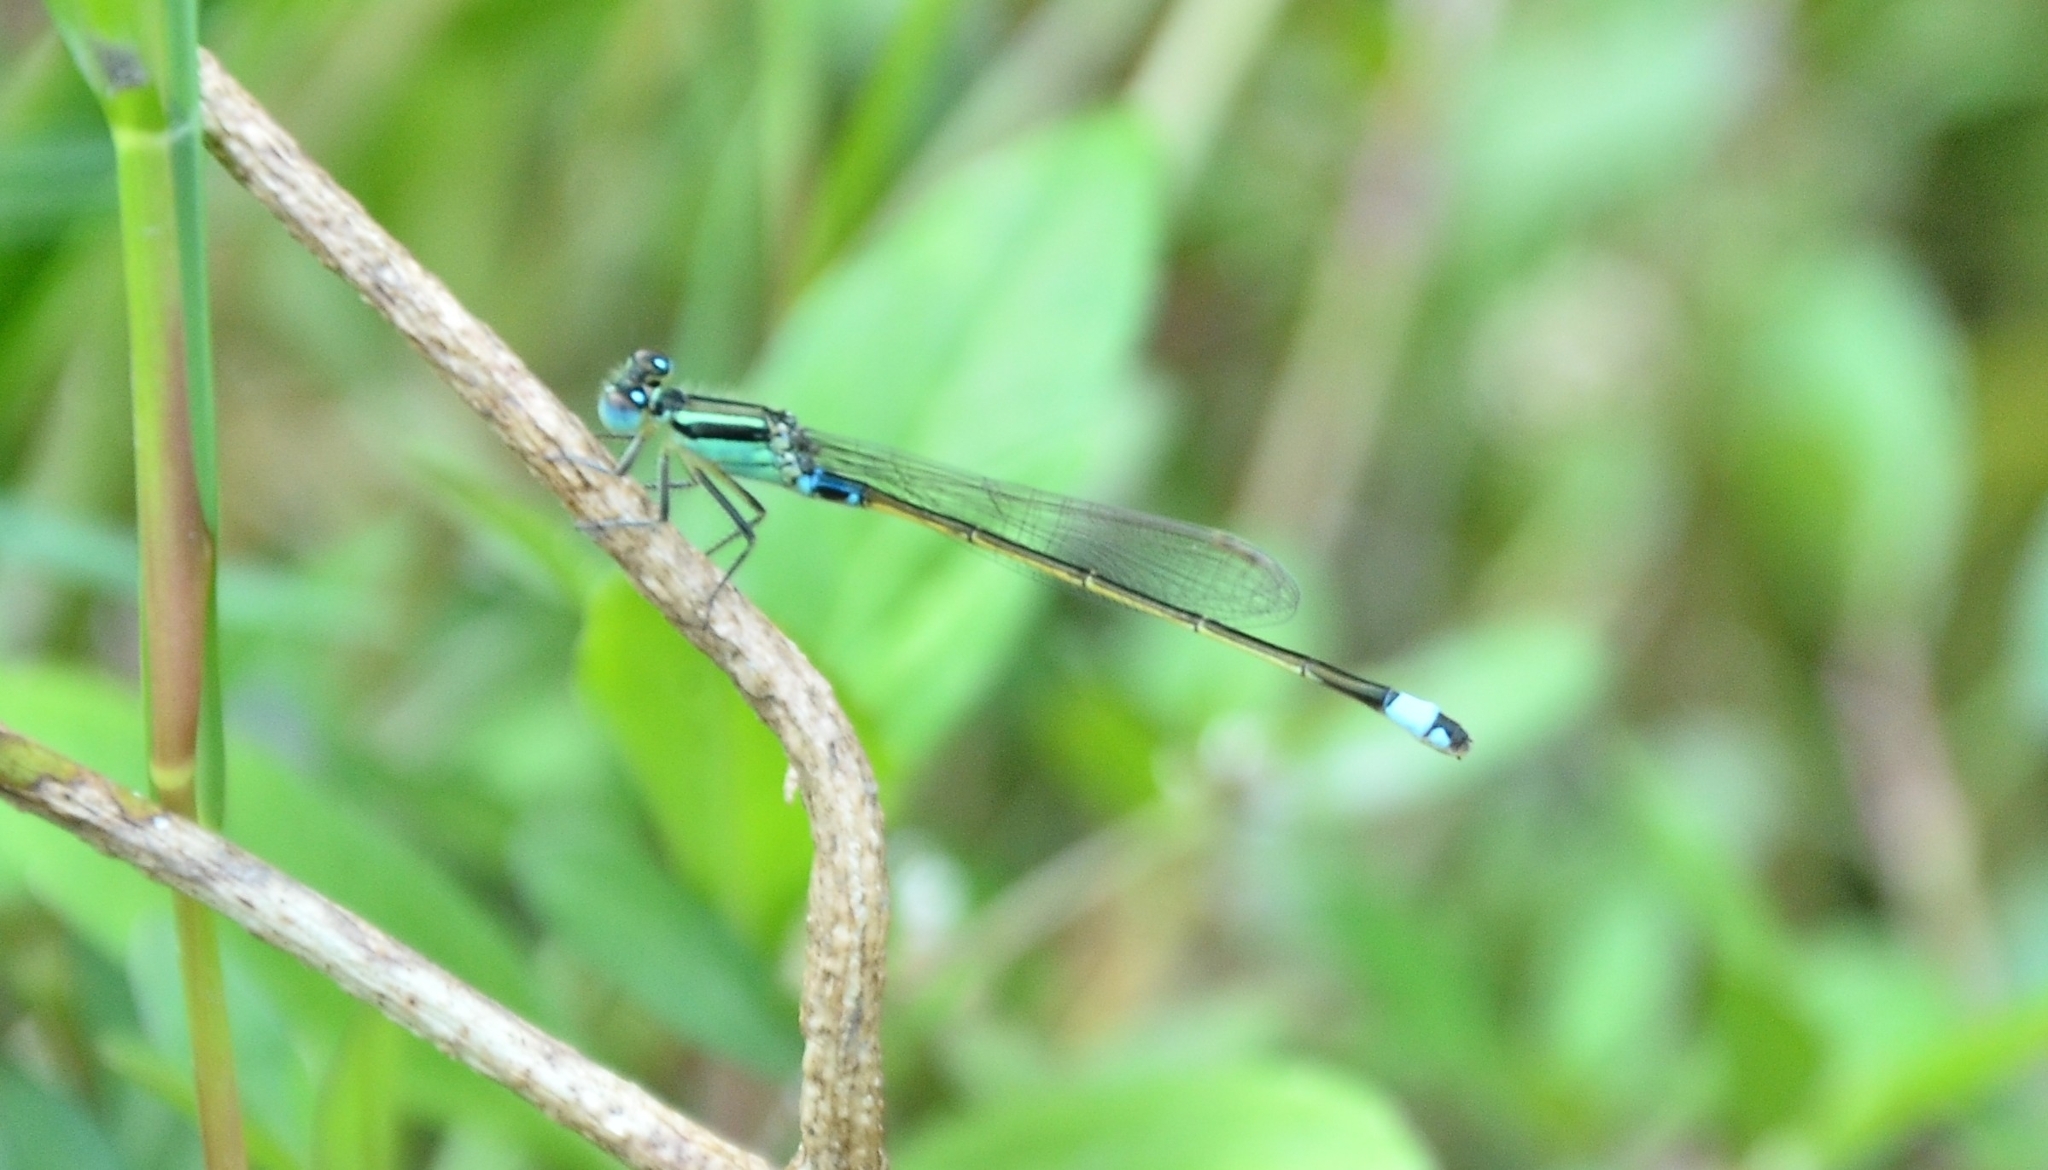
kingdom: Animalia
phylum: Arthropoda
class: Insecta
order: Odonata
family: Coenagrionidae
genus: Ischnura
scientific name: Ischnura senegalensis
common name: Tropical bluetail
